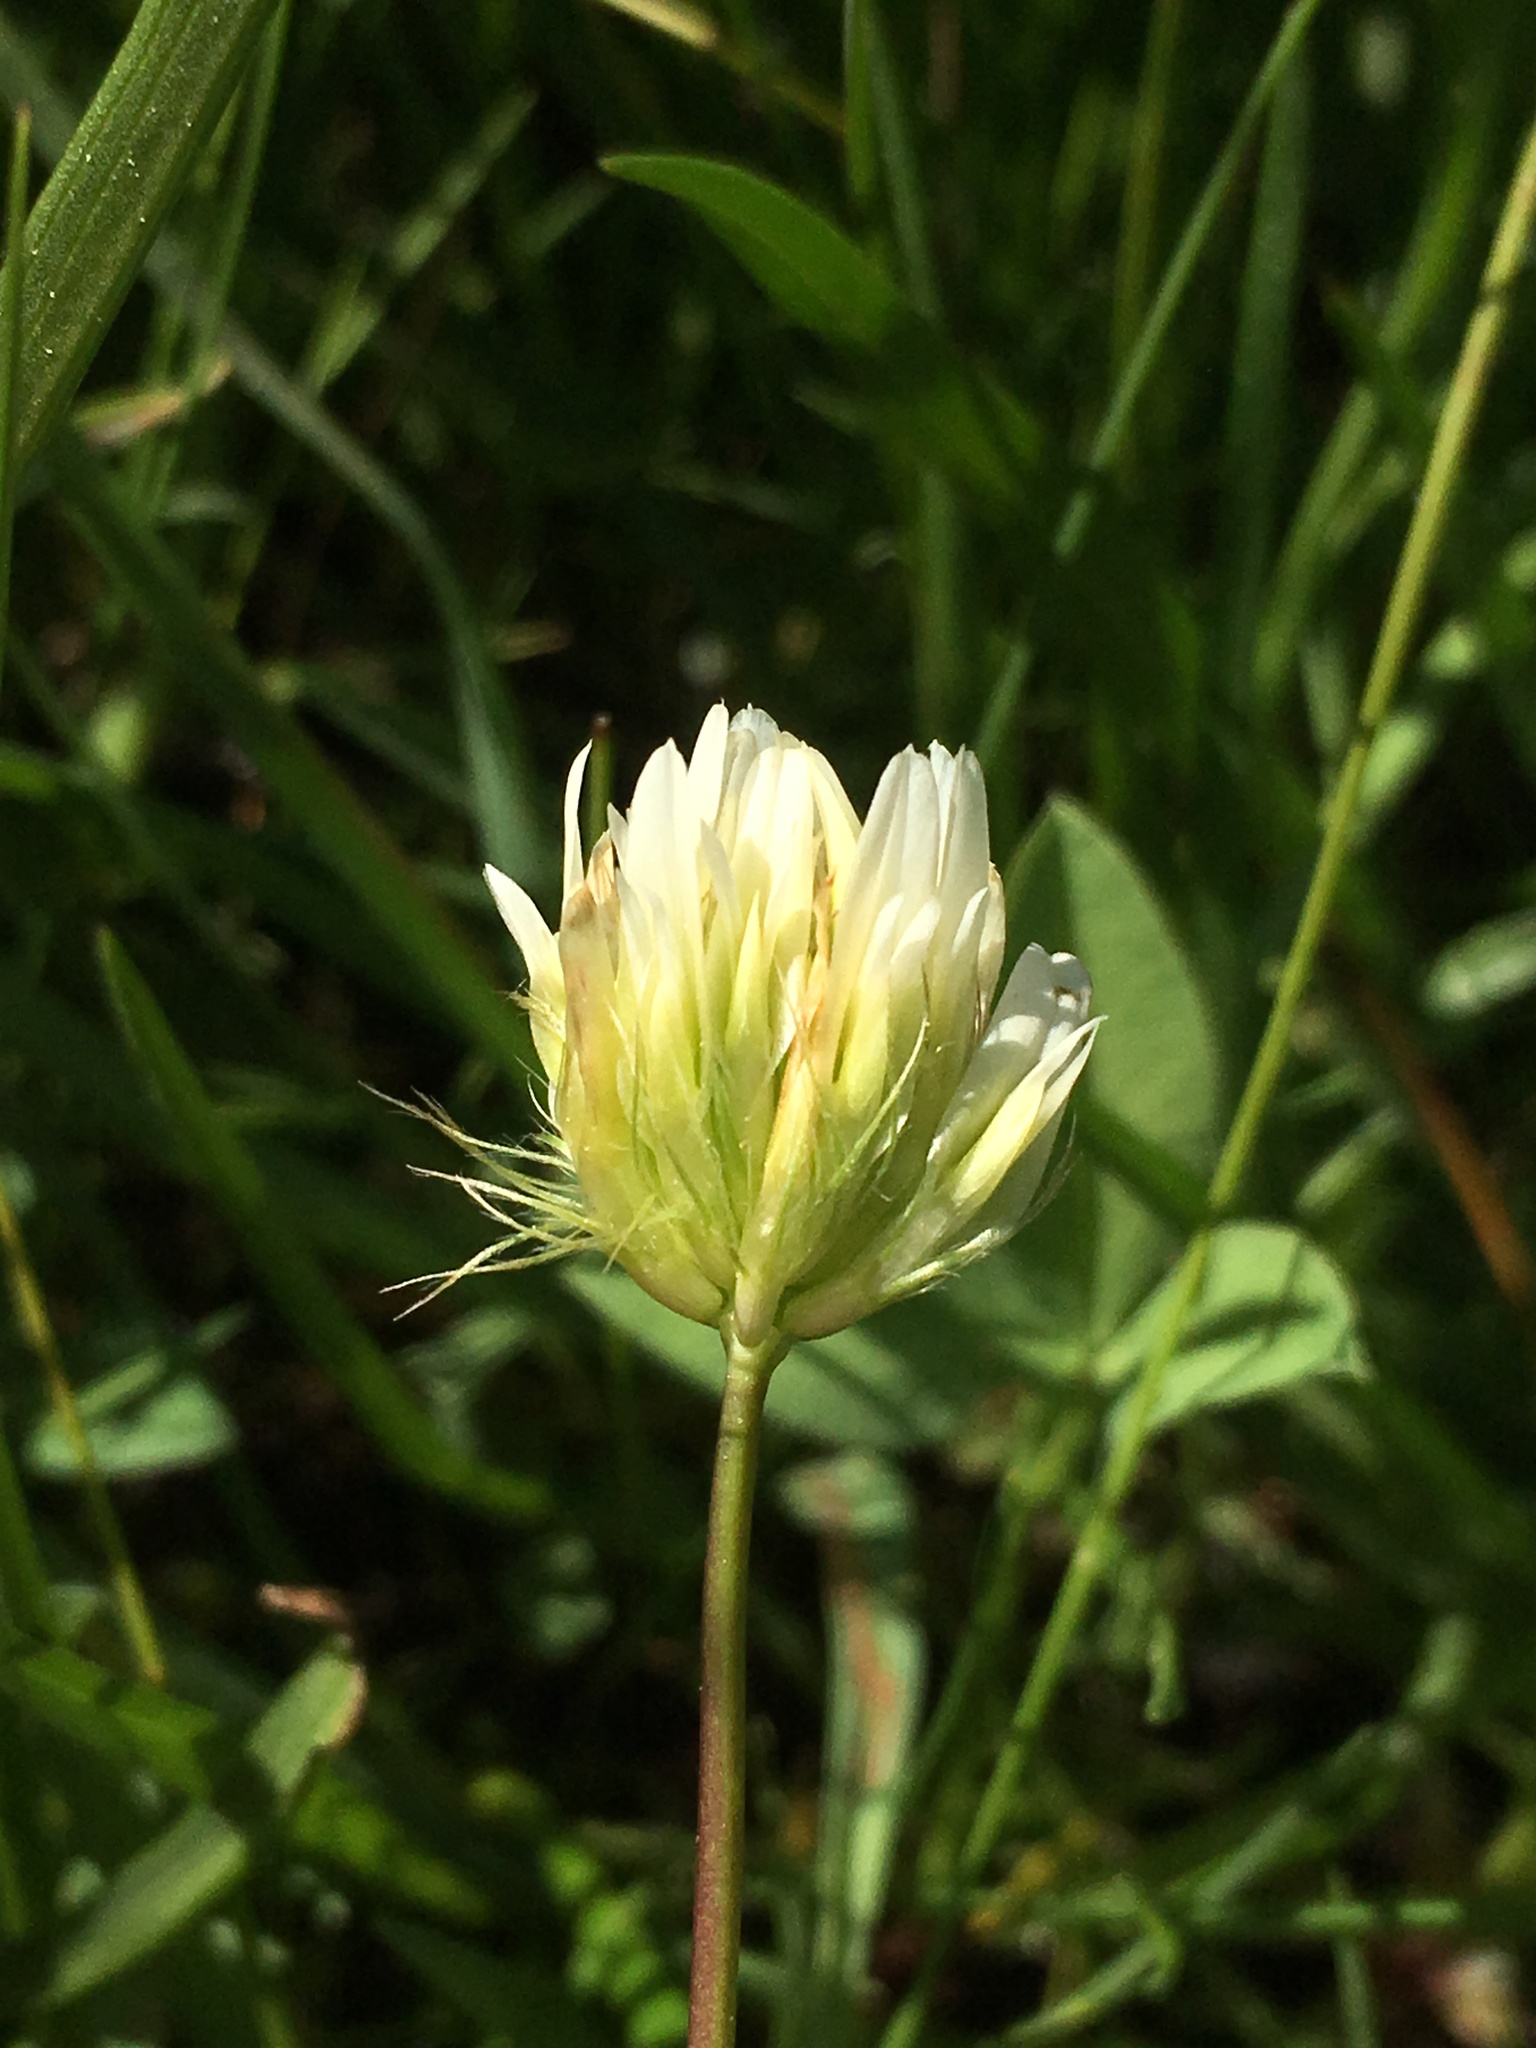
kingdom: Plantae
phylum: Tracheophyta
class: Magnoliopsida
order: Fabales
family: Fabaceae
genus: Trifolium
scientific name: Trifolium longipes
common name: Long-stalk clover
